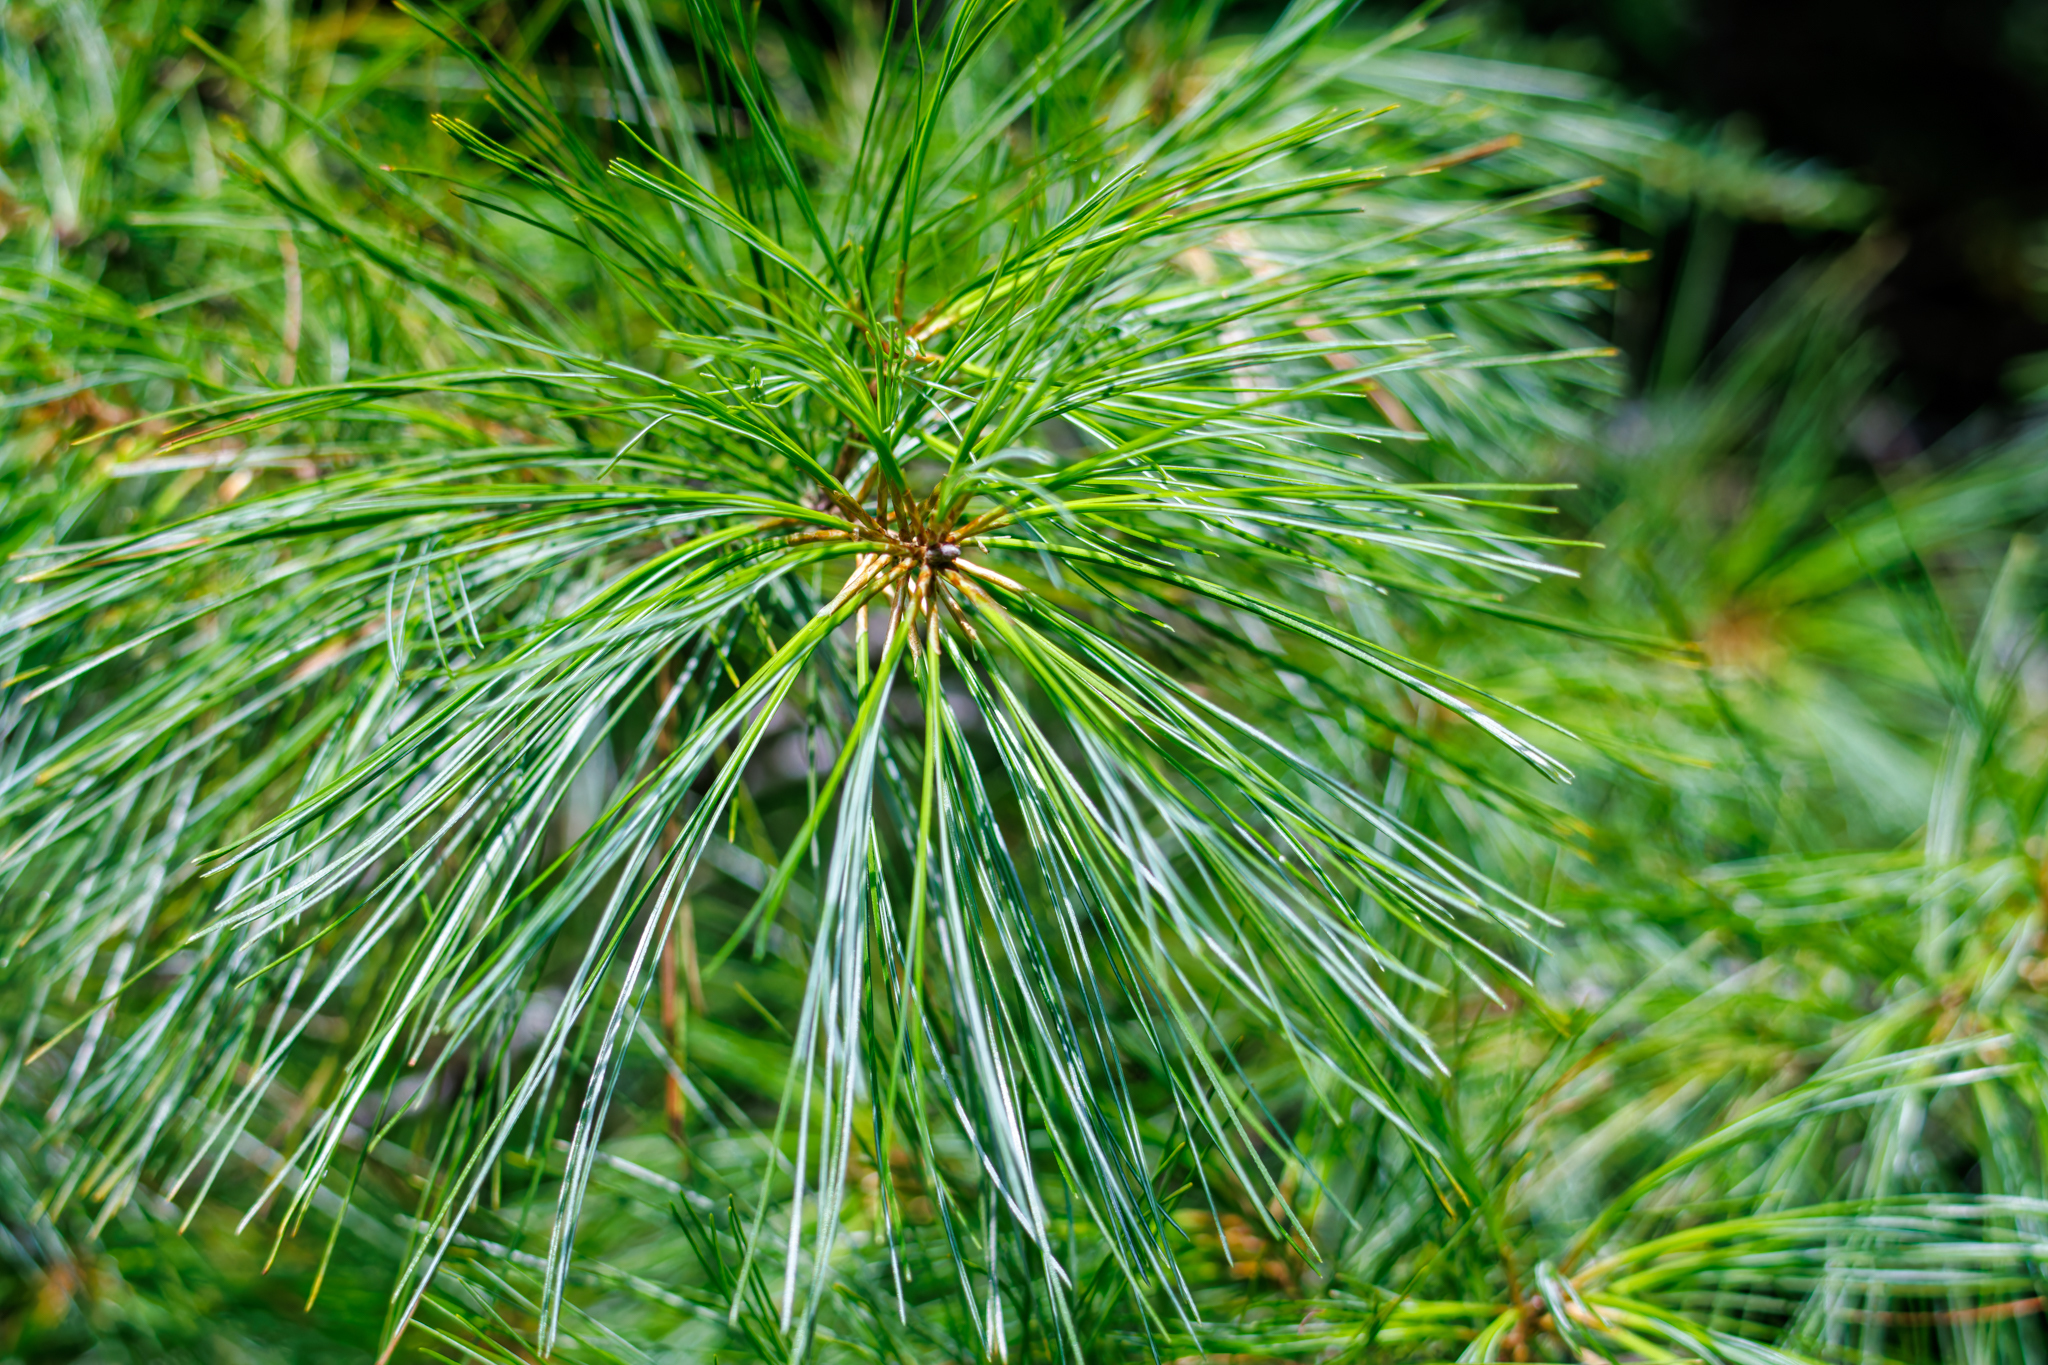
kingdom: Plantae
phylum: Tracheophyta
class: Pinopsida
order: Pinales
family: Pinaceae
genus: Pinus
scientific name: Pinus strobus
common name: Weymouth pine
